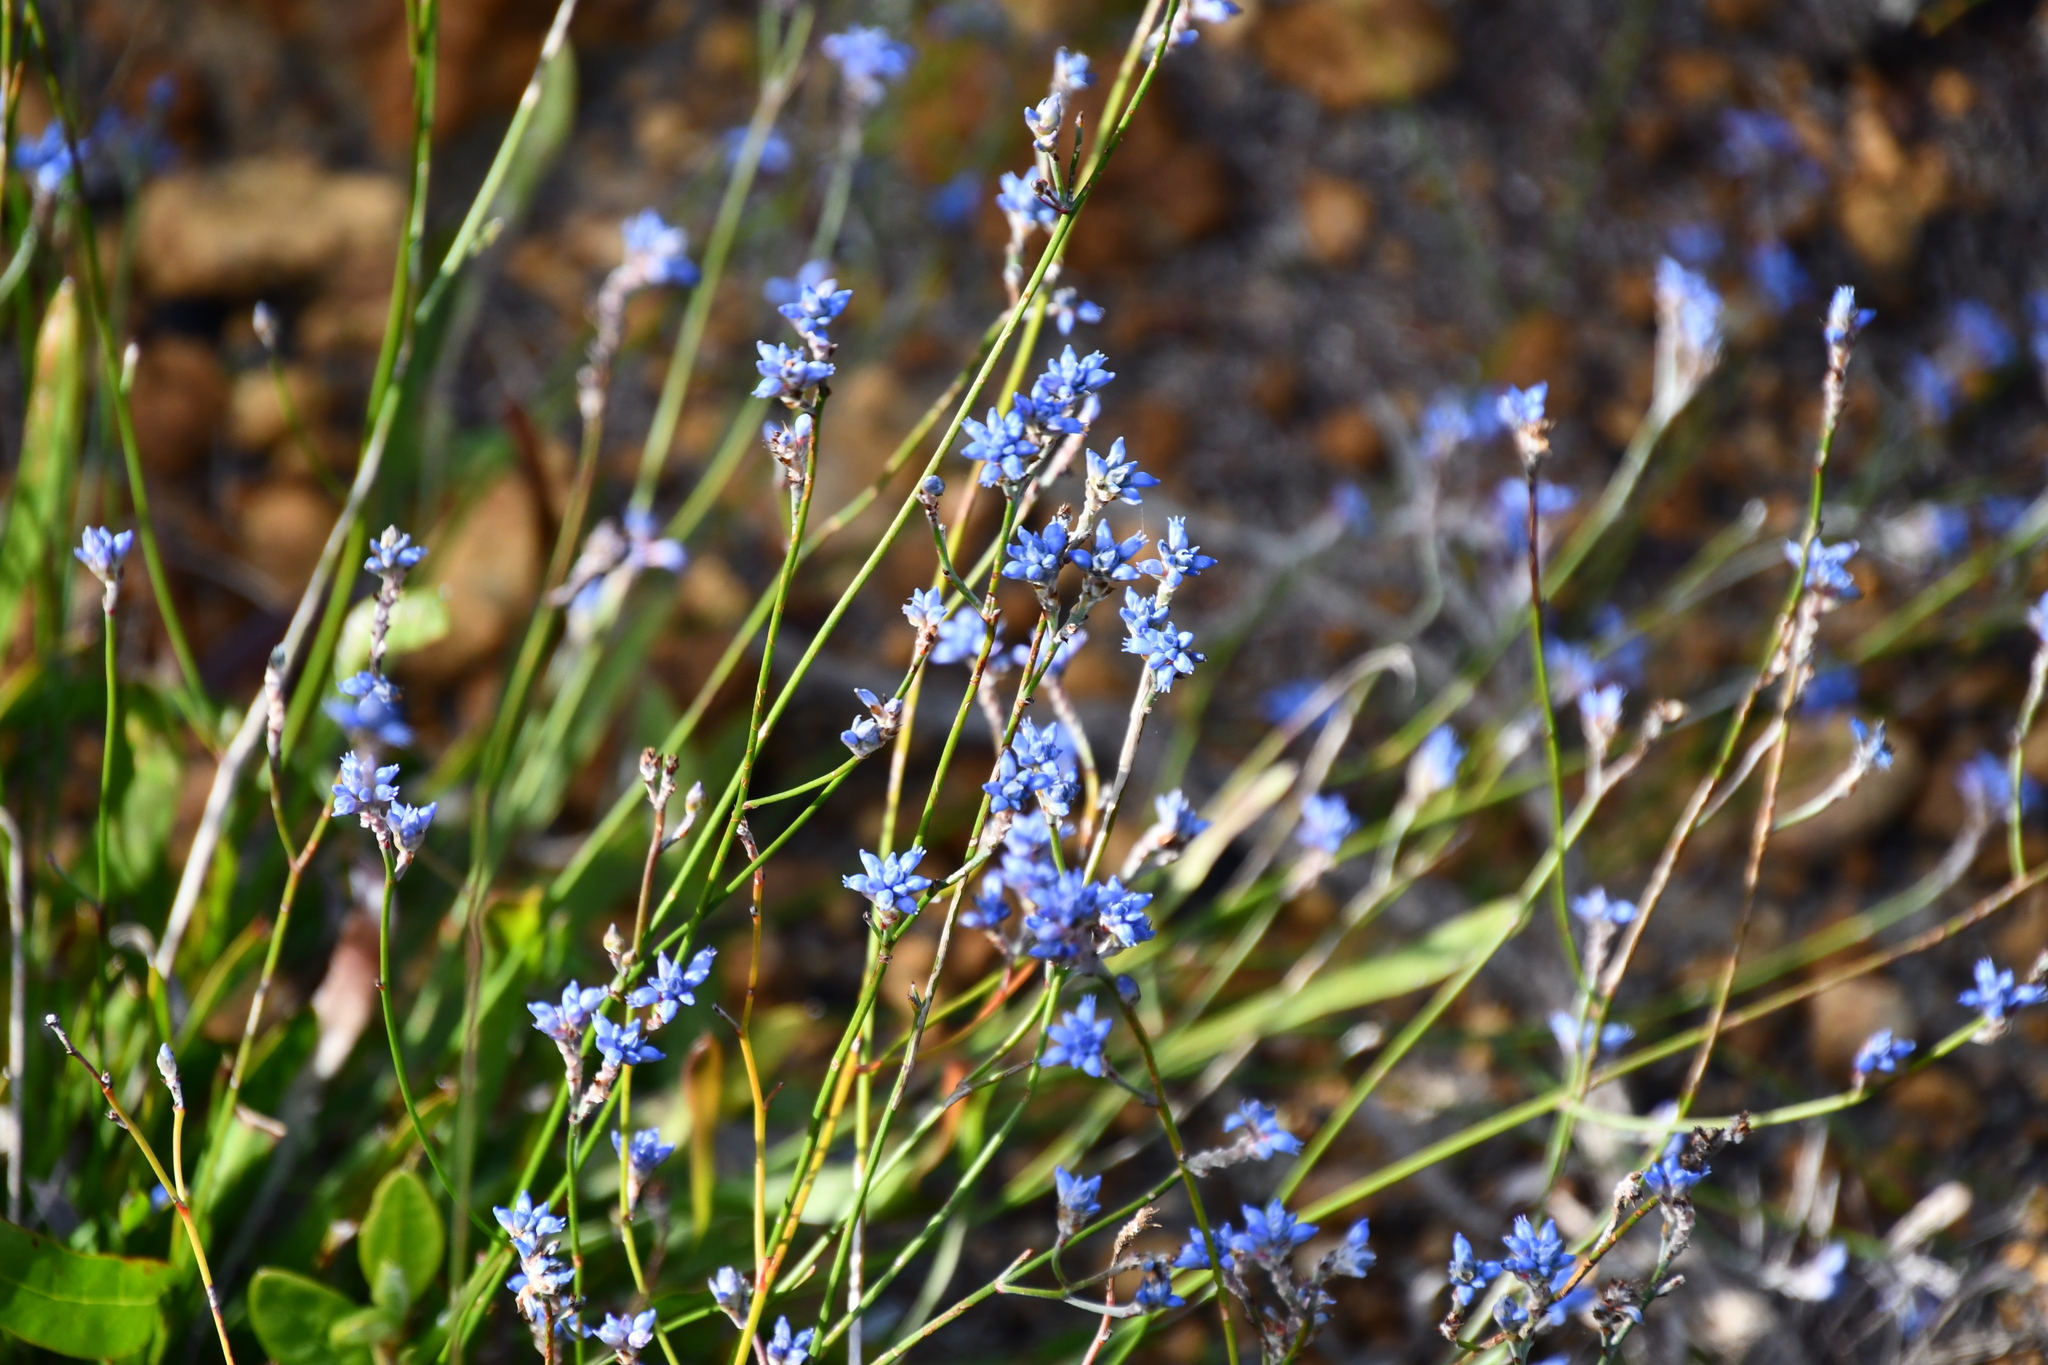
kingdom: Plantae
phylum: Tracheophyta
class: Magnoliopsida
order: Proteales
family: Proteaceae
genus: Conospermum
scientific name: Conospermum caeruleum
